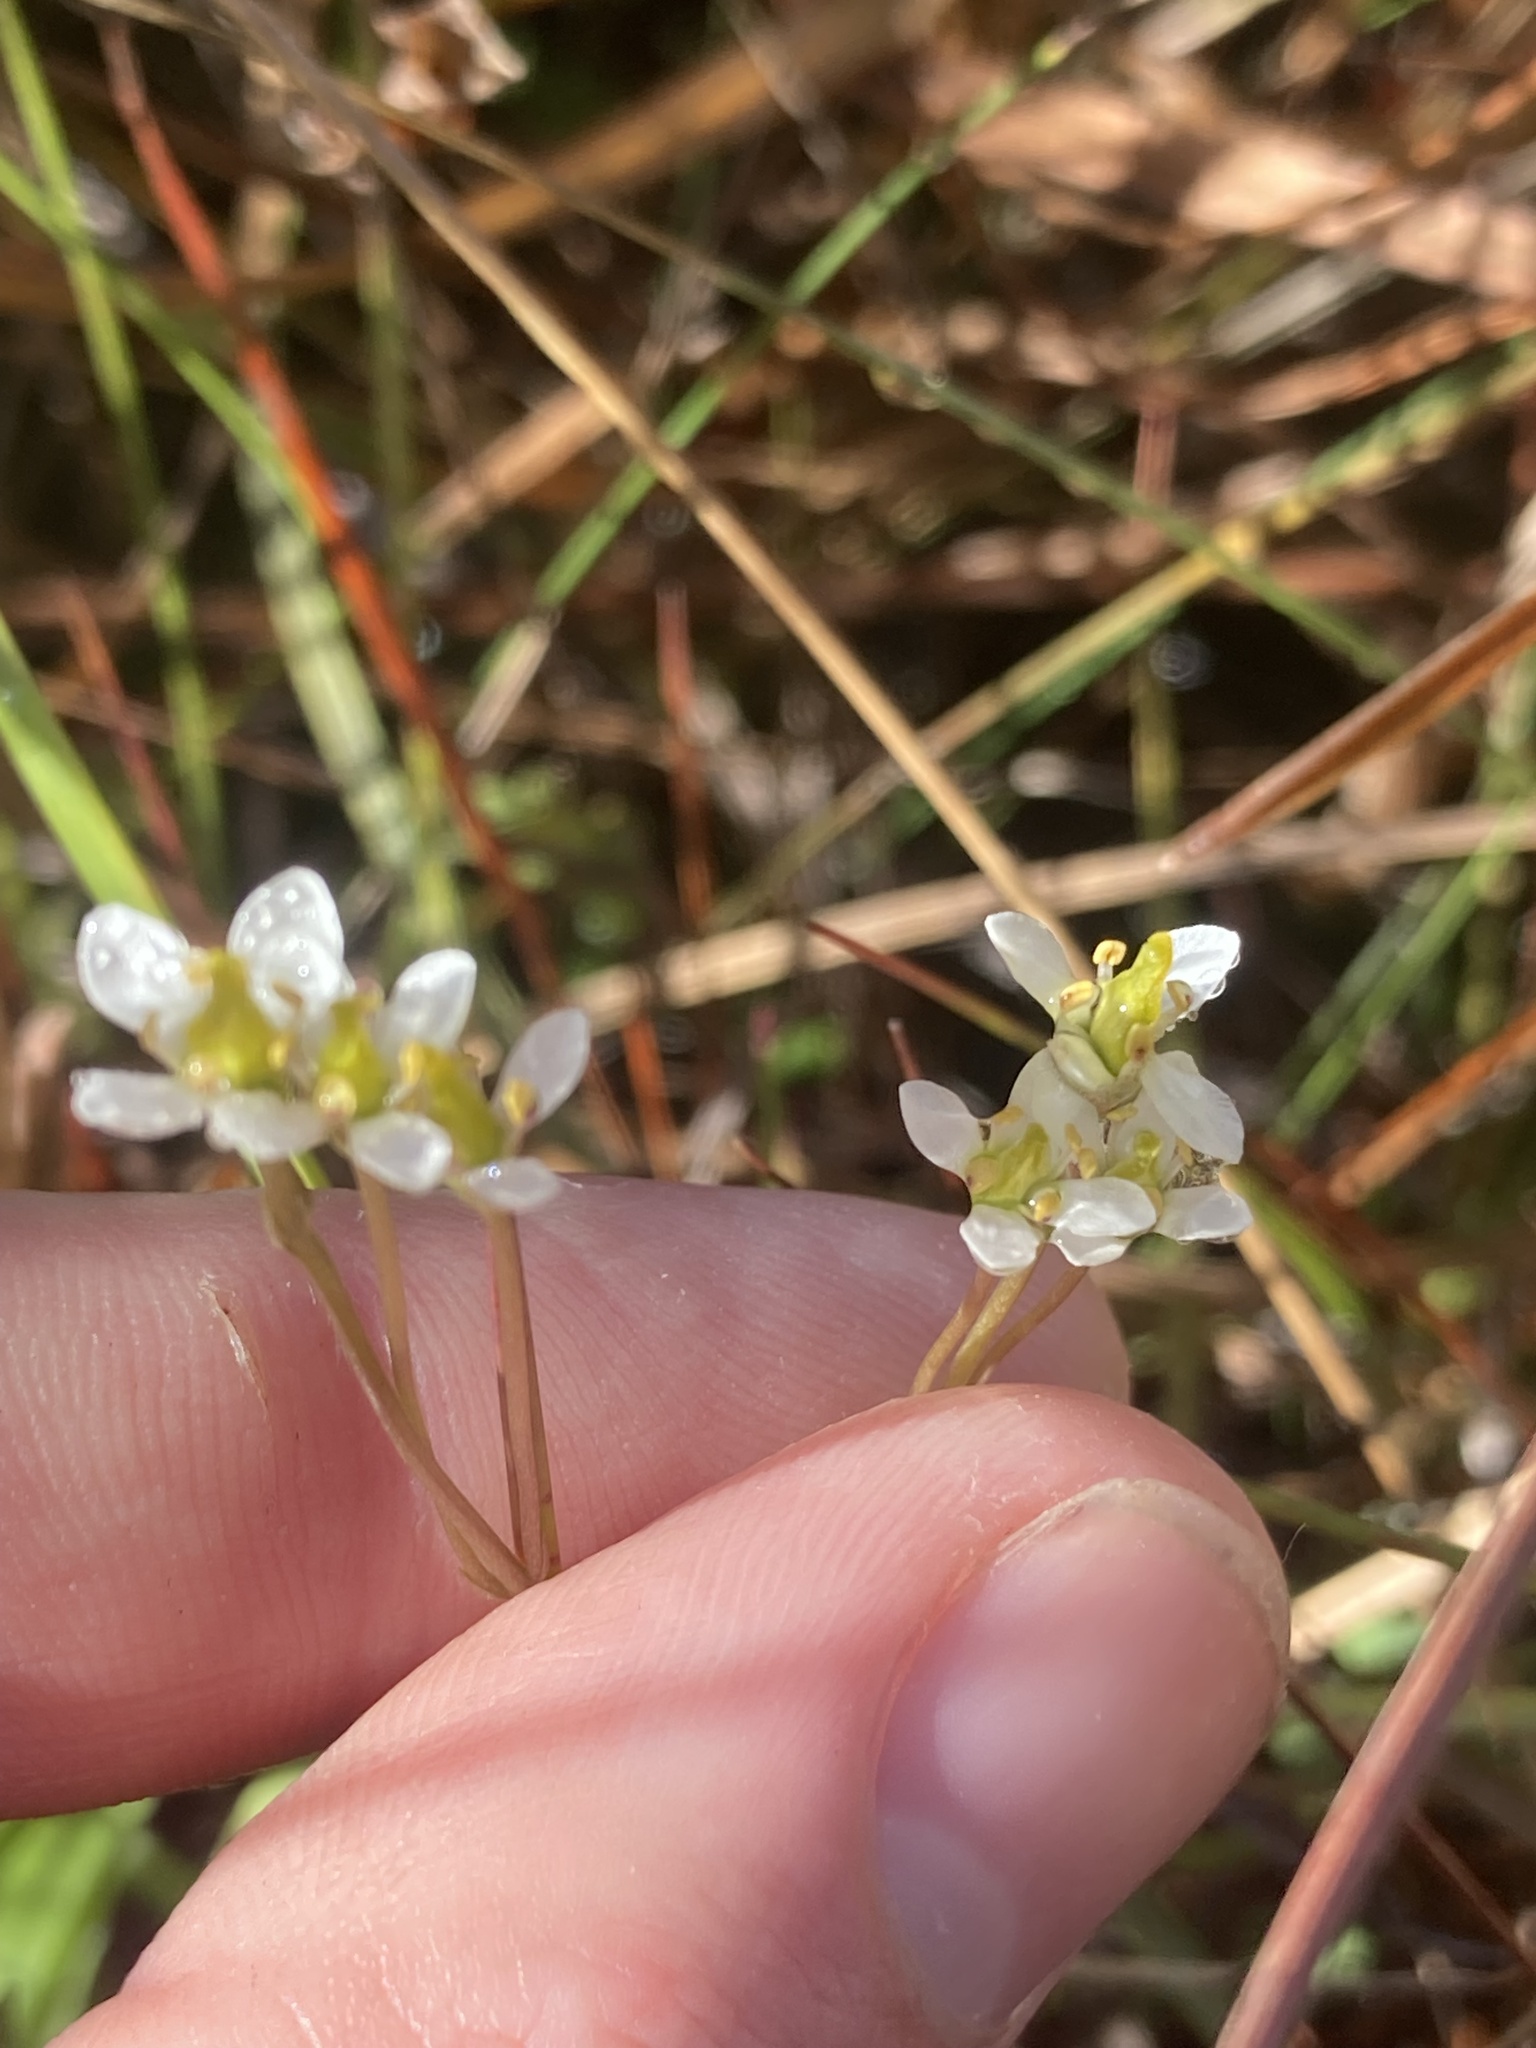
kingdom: Plantae
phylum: Tracheophyta
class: Magnoliopsida
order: Gentianales
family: Gentianaceae
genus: Bartonia
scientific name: Bartonia verna
